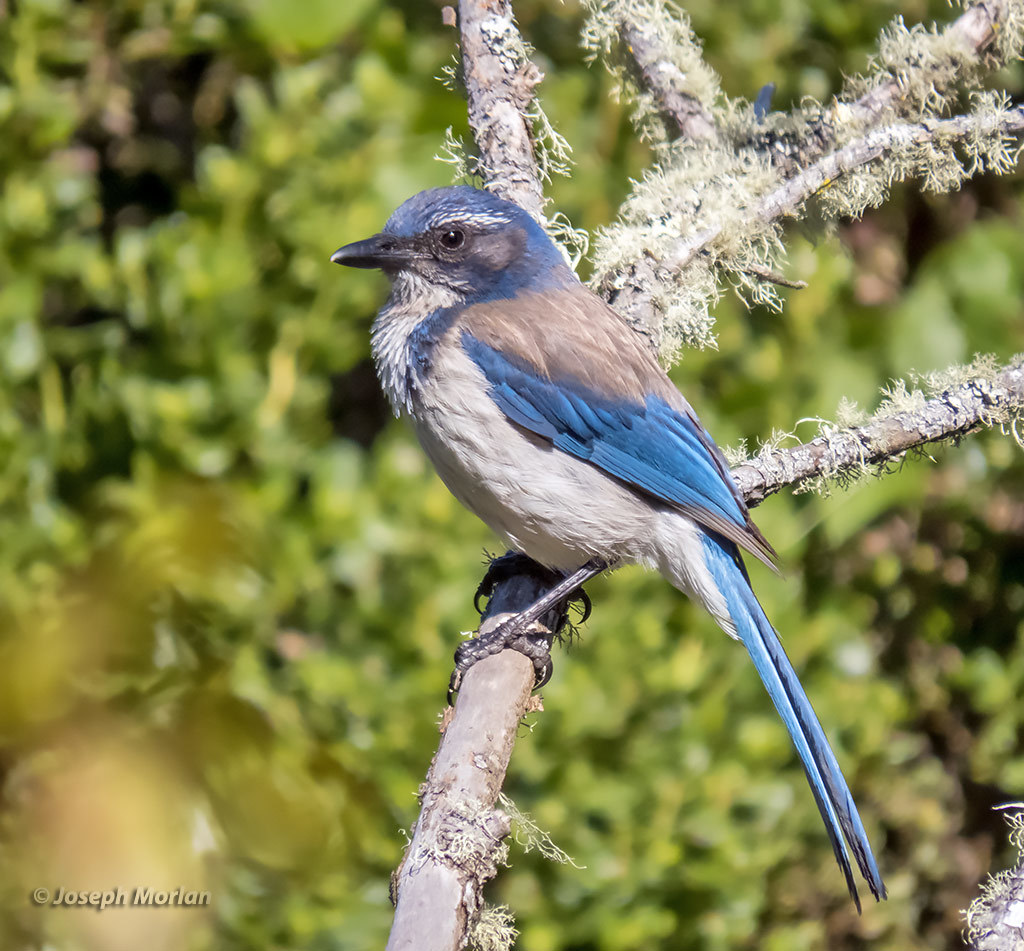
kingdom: Animalia
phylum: Chordata
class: Aves
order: Passeriformes
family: Corvidae
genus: Aphelocoma
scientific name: Aphelocoma californica
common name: California scrub-jay
